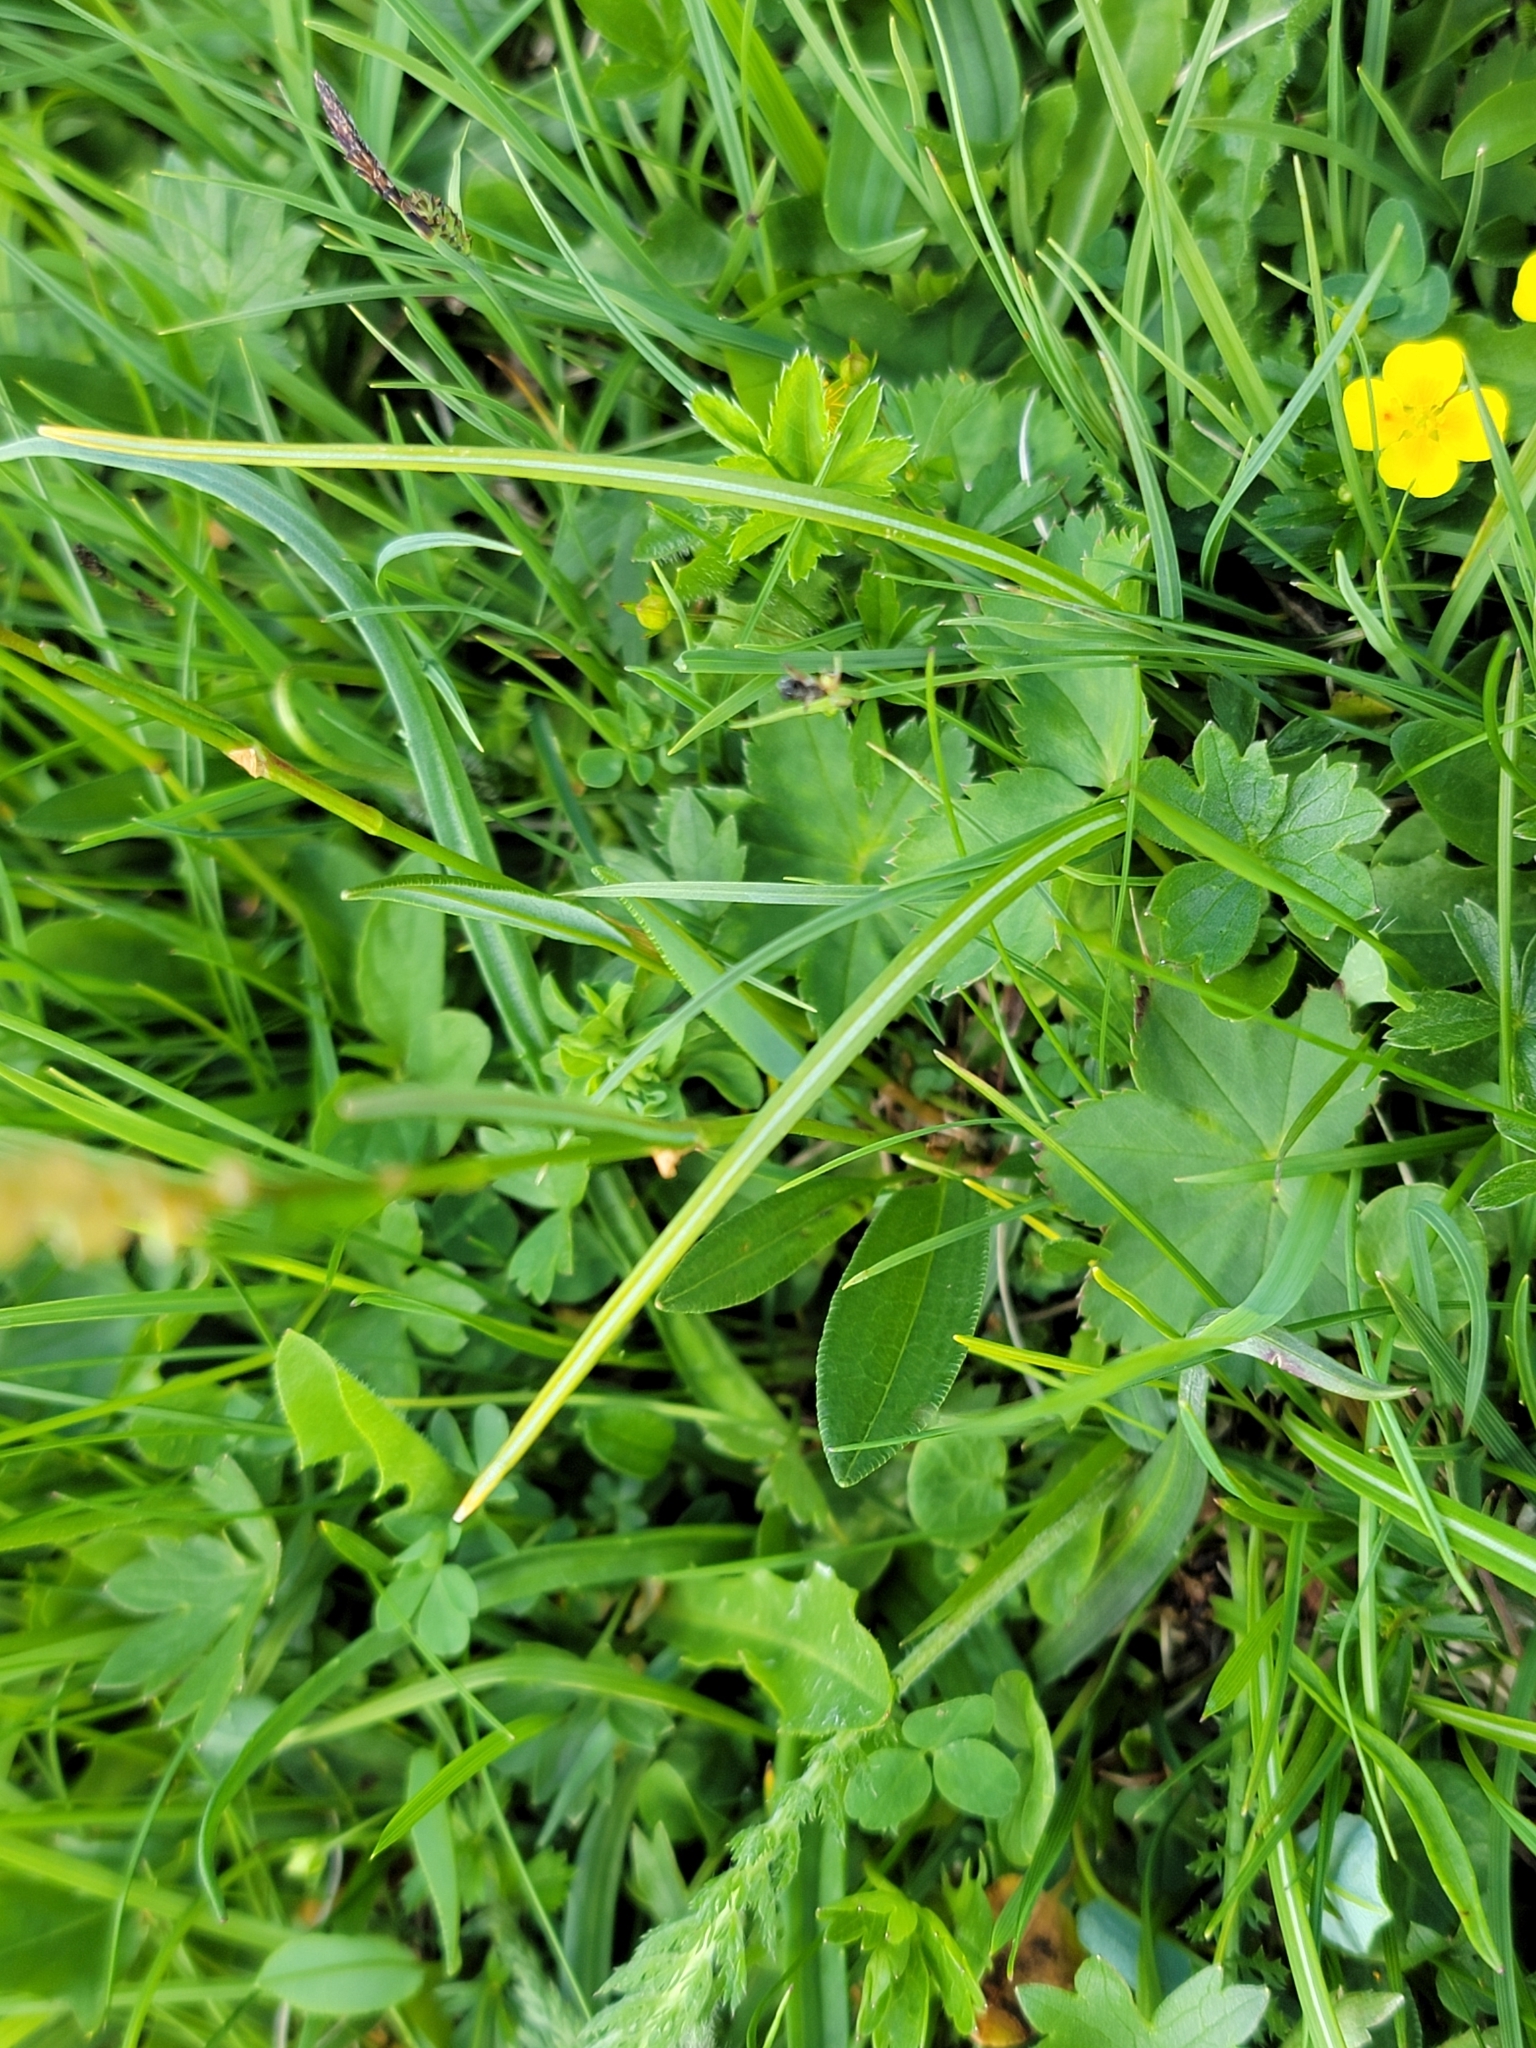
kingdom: Plantae
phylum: Tracheophyta
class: Magnoliopsida
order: Caryophyllales
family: Polygonaceae
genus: Bistorta
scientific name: Bistorta vivipara
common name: Alpine bistort
